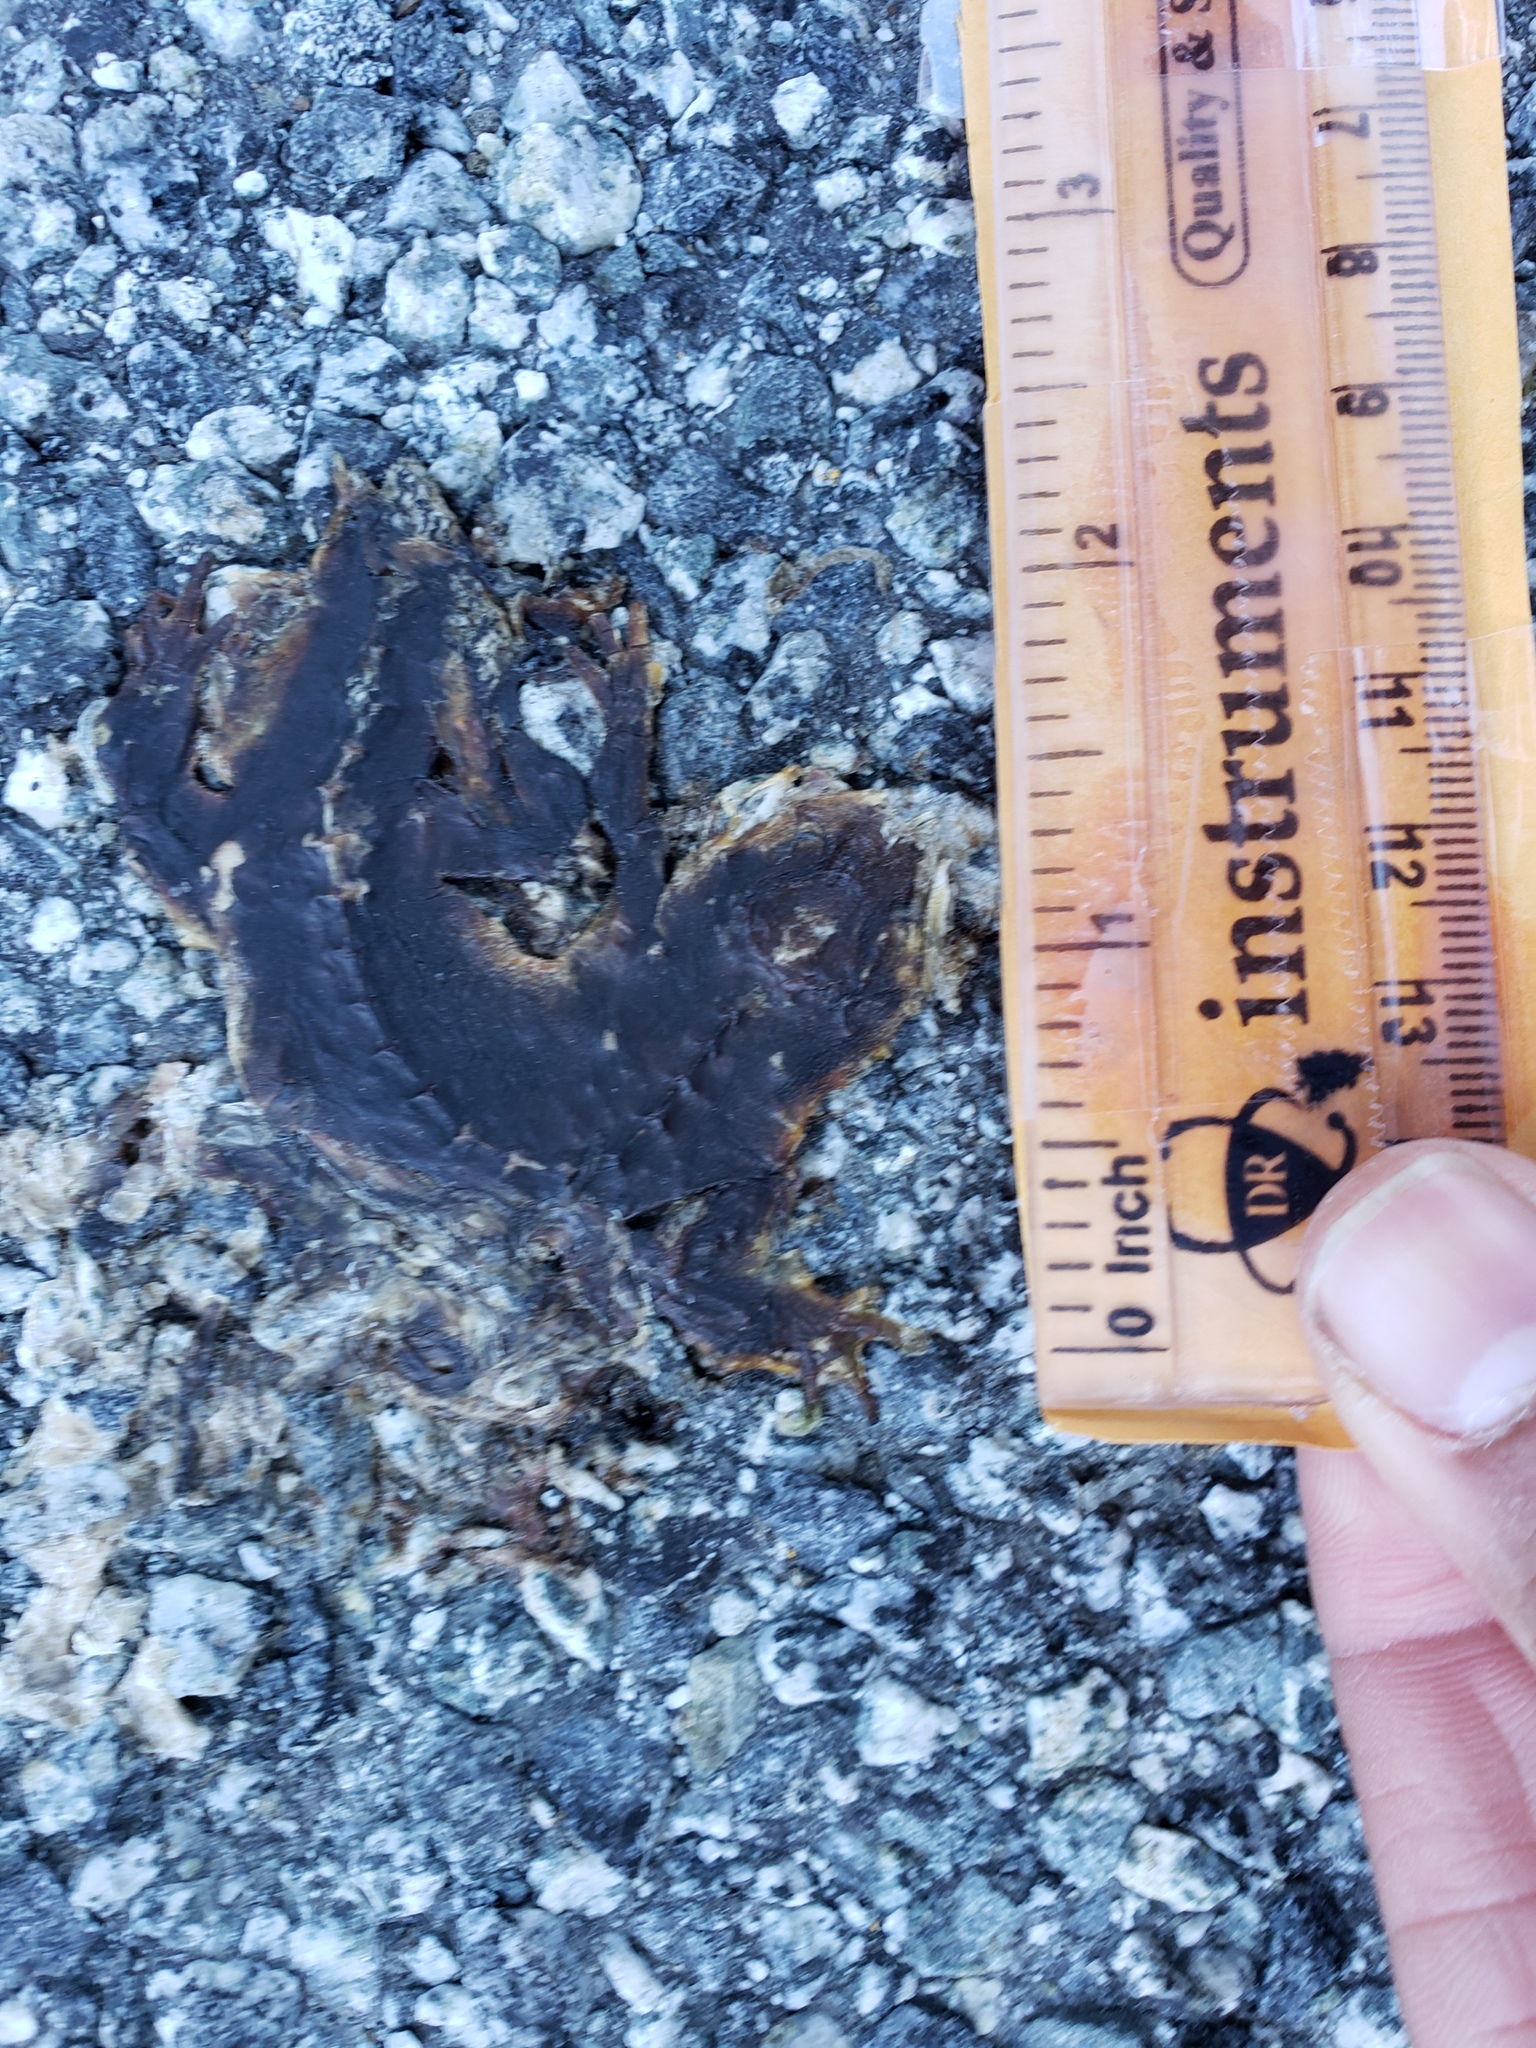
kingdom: Animalia
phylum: Chordata
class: Amphibia
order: Caudata
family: Salamandridae
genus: Taricha
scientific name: Taricha
